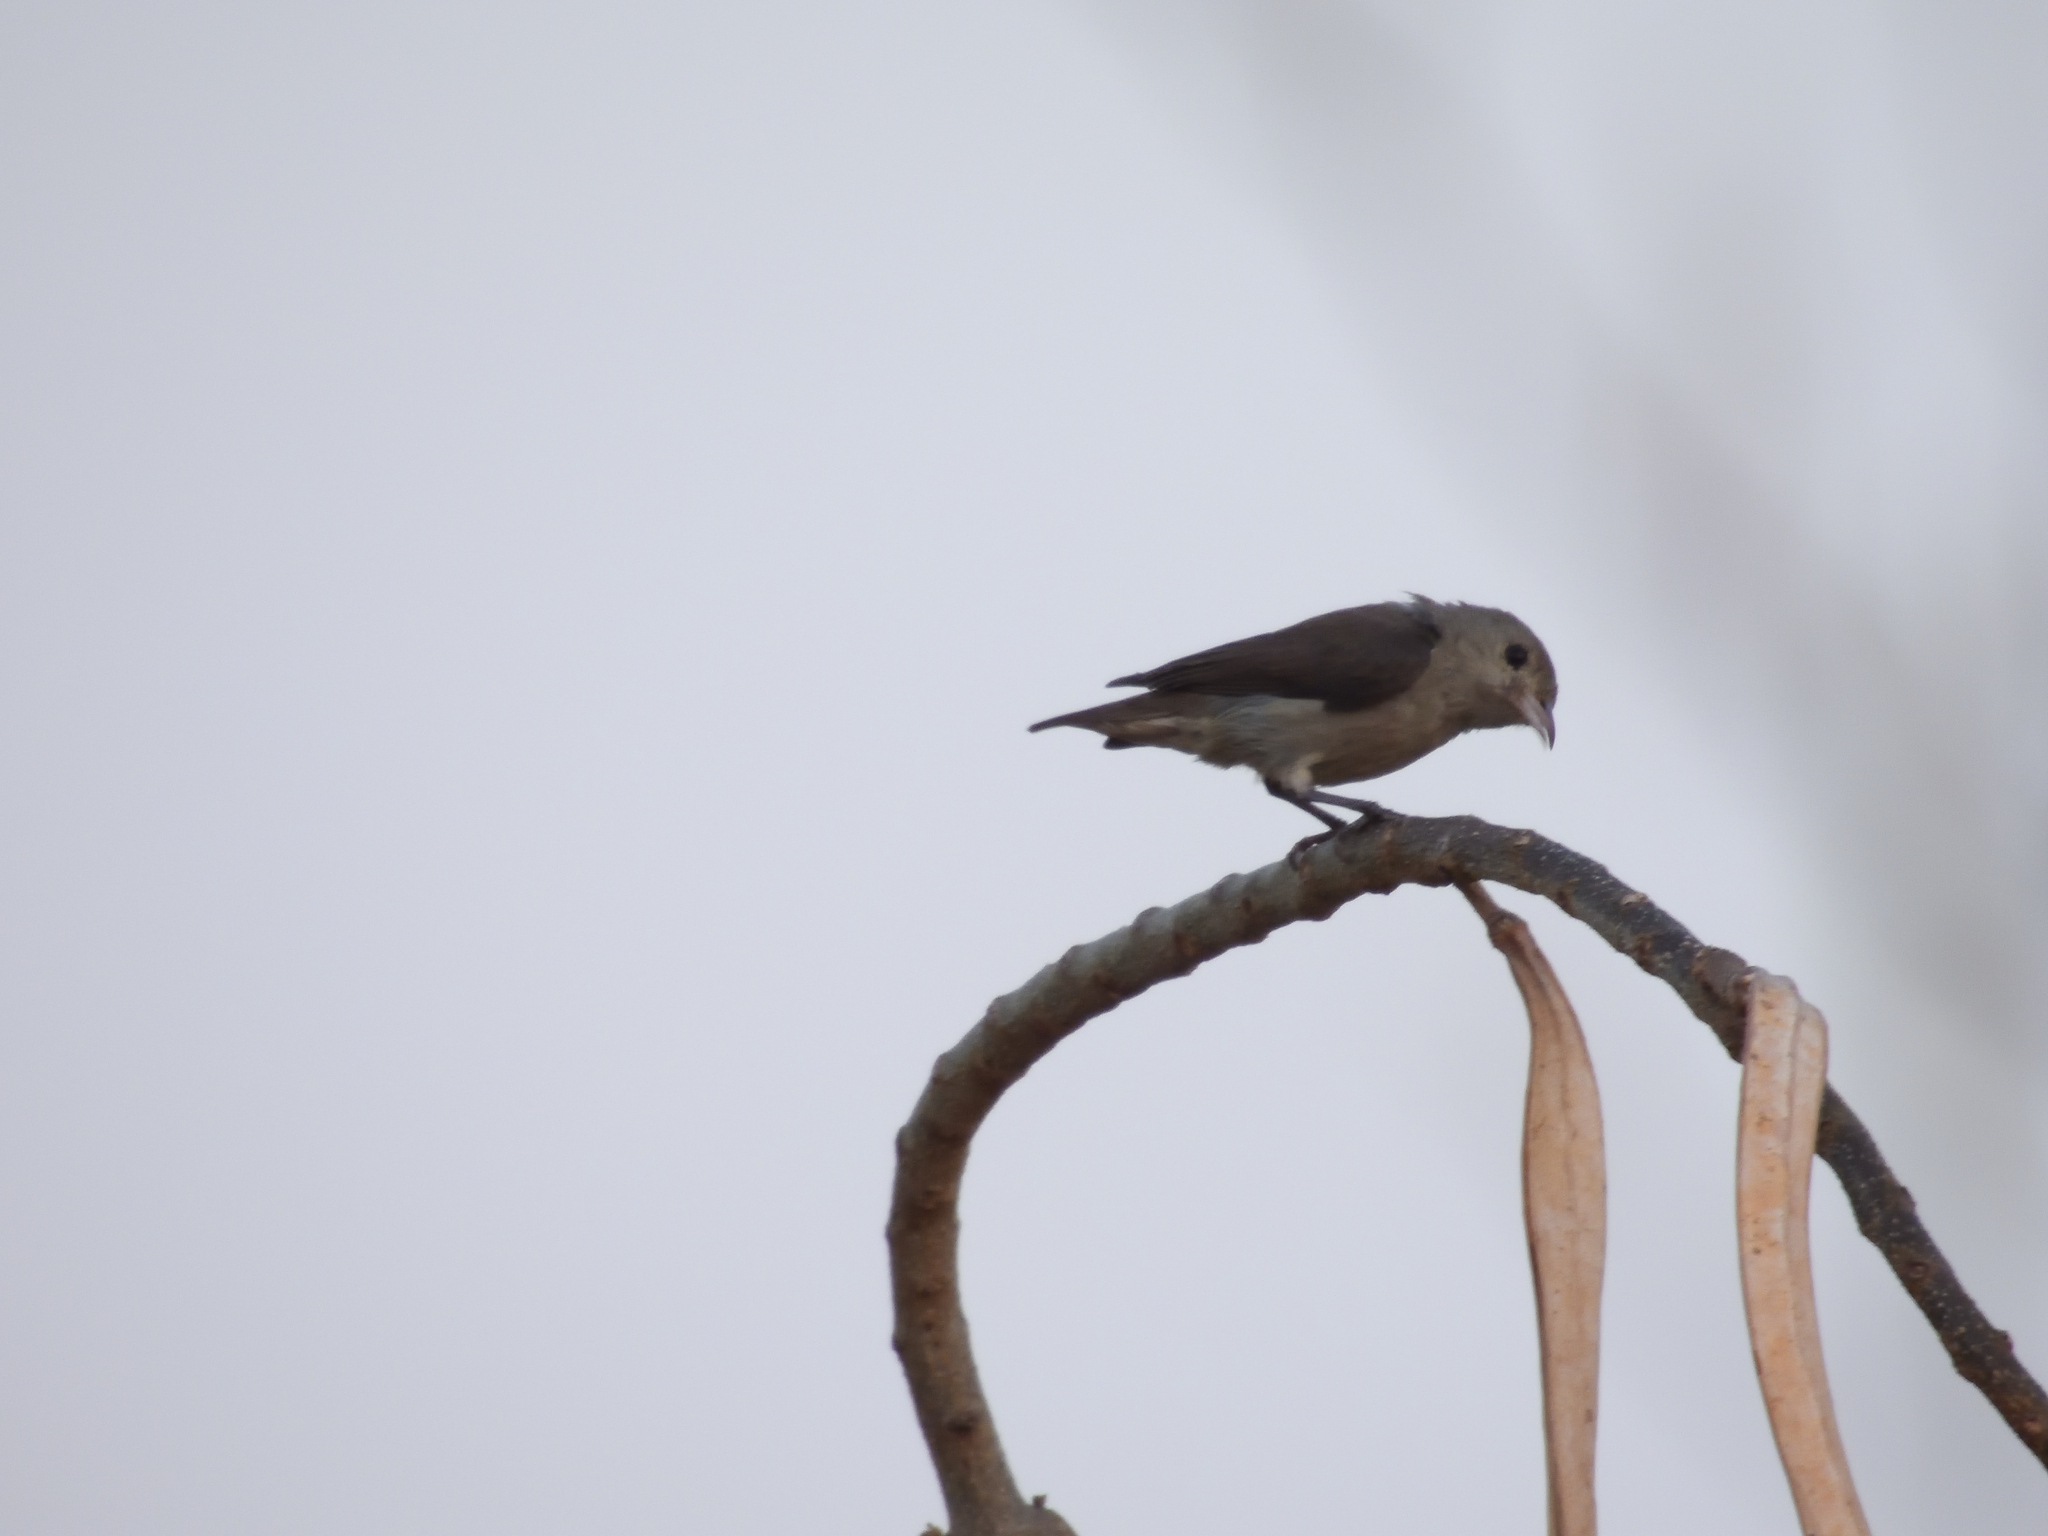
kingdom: Animalia
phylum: Chordata
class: Aves
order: Passeriformes
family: Dicaeidae
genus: Dicaeum
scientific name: Dicaeum erythrorhynchos
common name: Pale-billed flowerpecker
